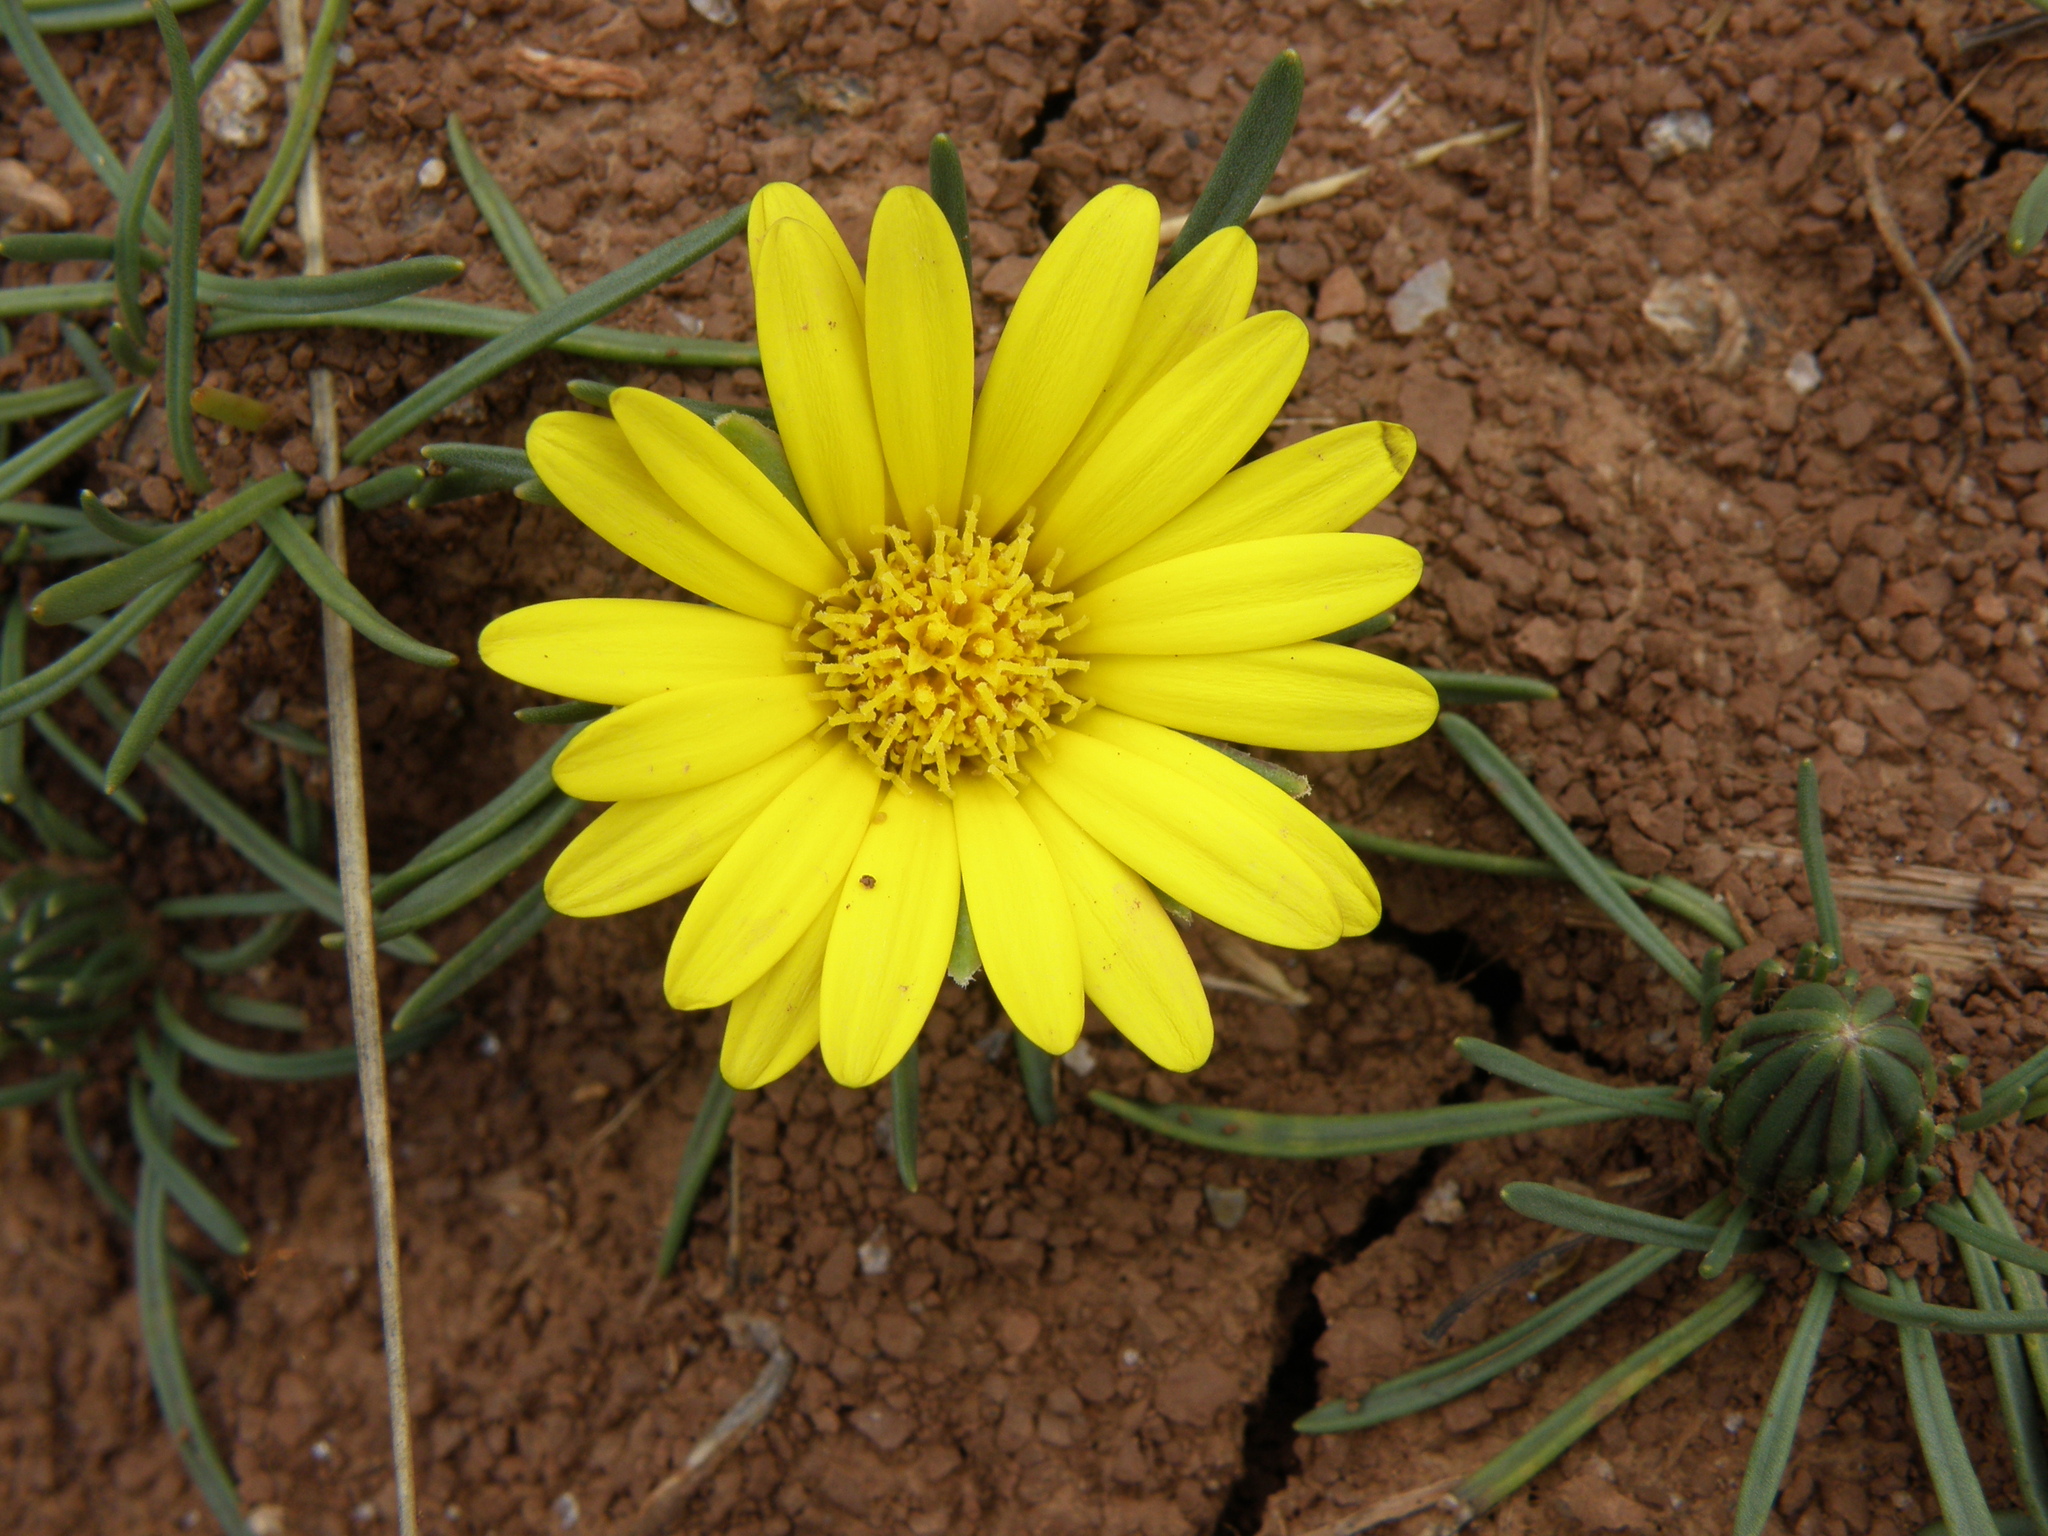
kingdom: Plantae
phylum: Tracheophyta
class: Magnoliopsida
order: Asterales
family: Asteraceae
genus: Rockhausenia
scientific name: Rockhausenia canaliculata
